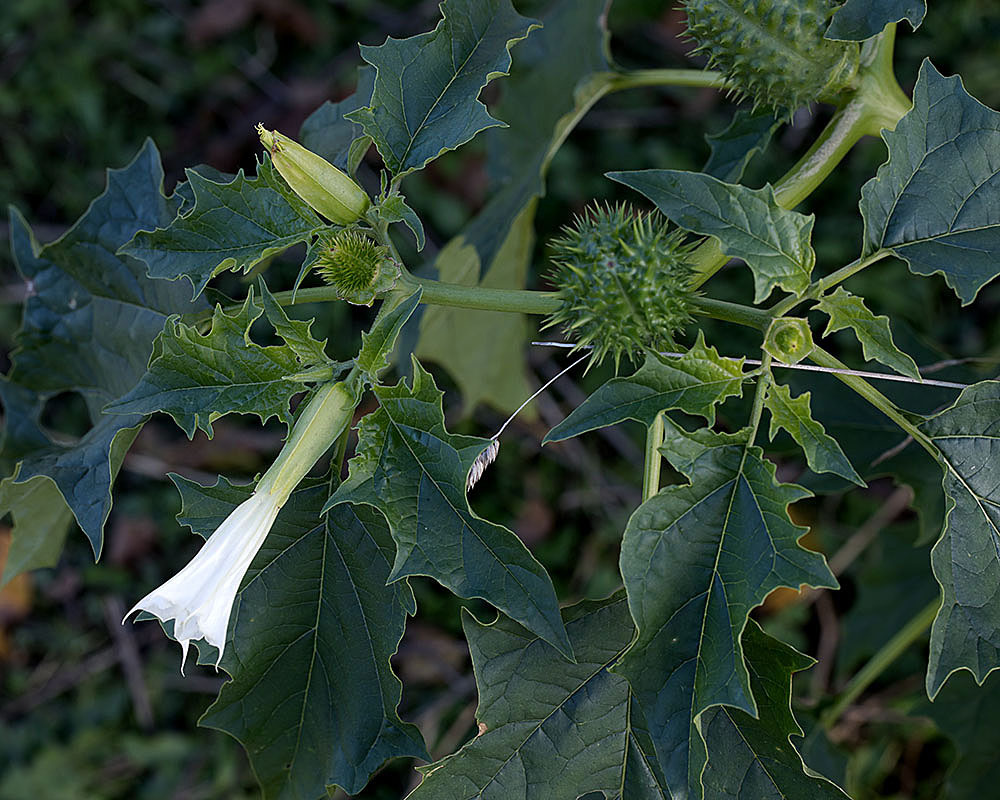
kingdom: Plantae
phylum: Tracheophyta
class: Magnoliopsida
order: Solanales
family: Solanaceae
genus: Datura
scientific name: Datura stramonium
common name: Thorn-apple
